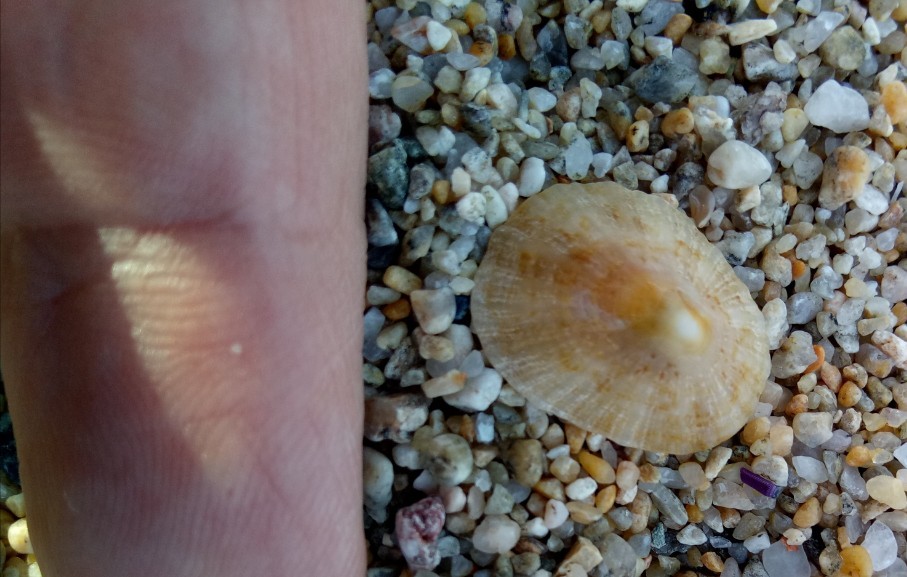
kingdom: Animalia
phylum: Mollusca
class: Gastropoda
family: Patellidae
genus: Patella
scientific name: Patella caerulea
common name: Mediterranean limpet
